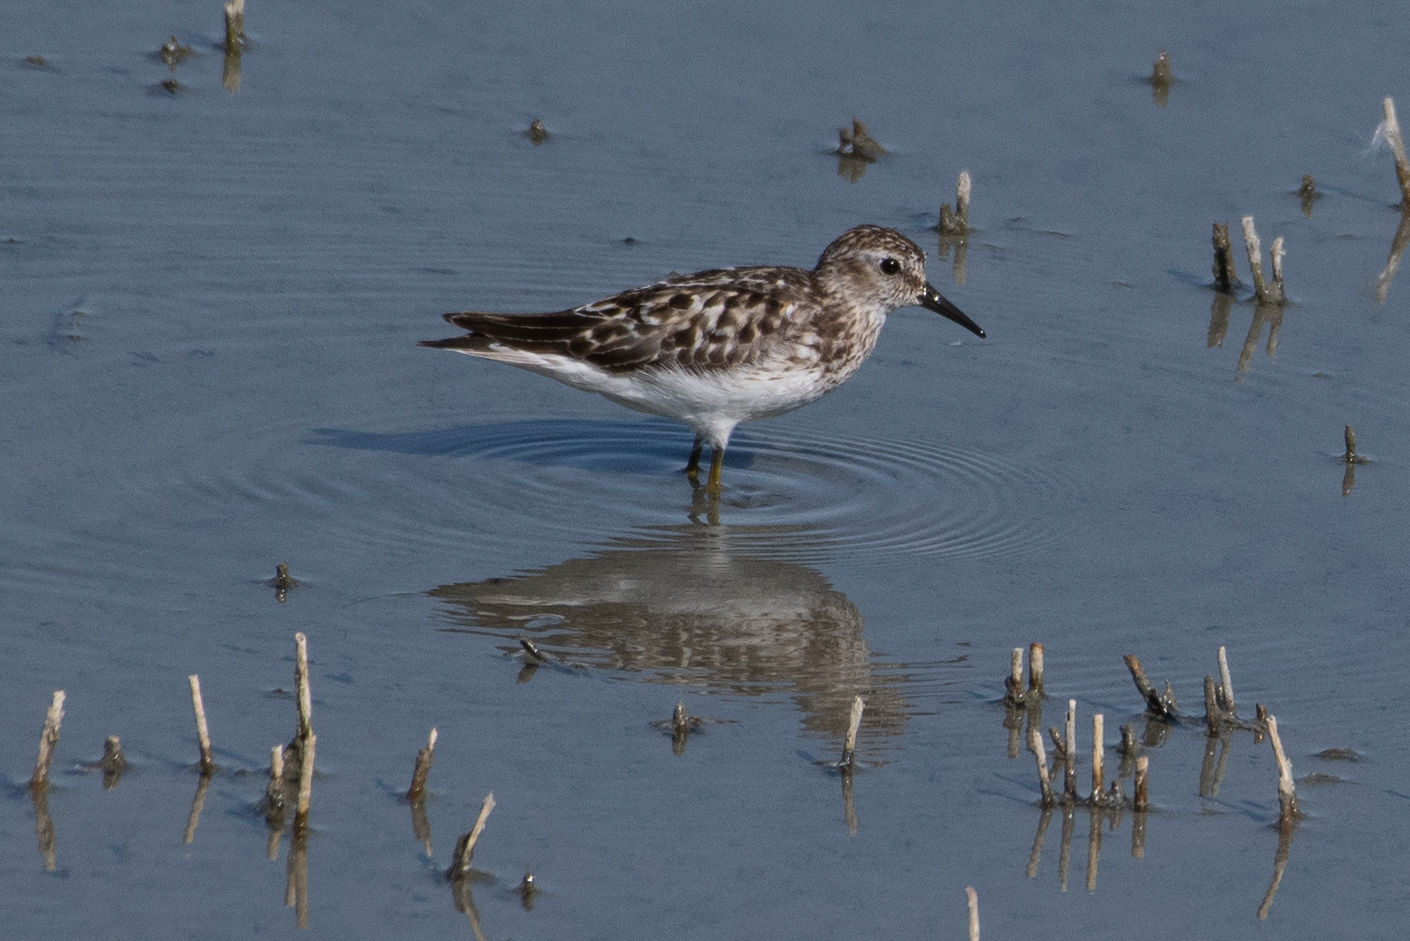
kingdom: Animalia
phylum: Chordata
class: Aves
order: Charadriiformes
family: Scolopacidae
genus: Calidris
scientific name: Calidris minutilla
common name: Least sandpiper
